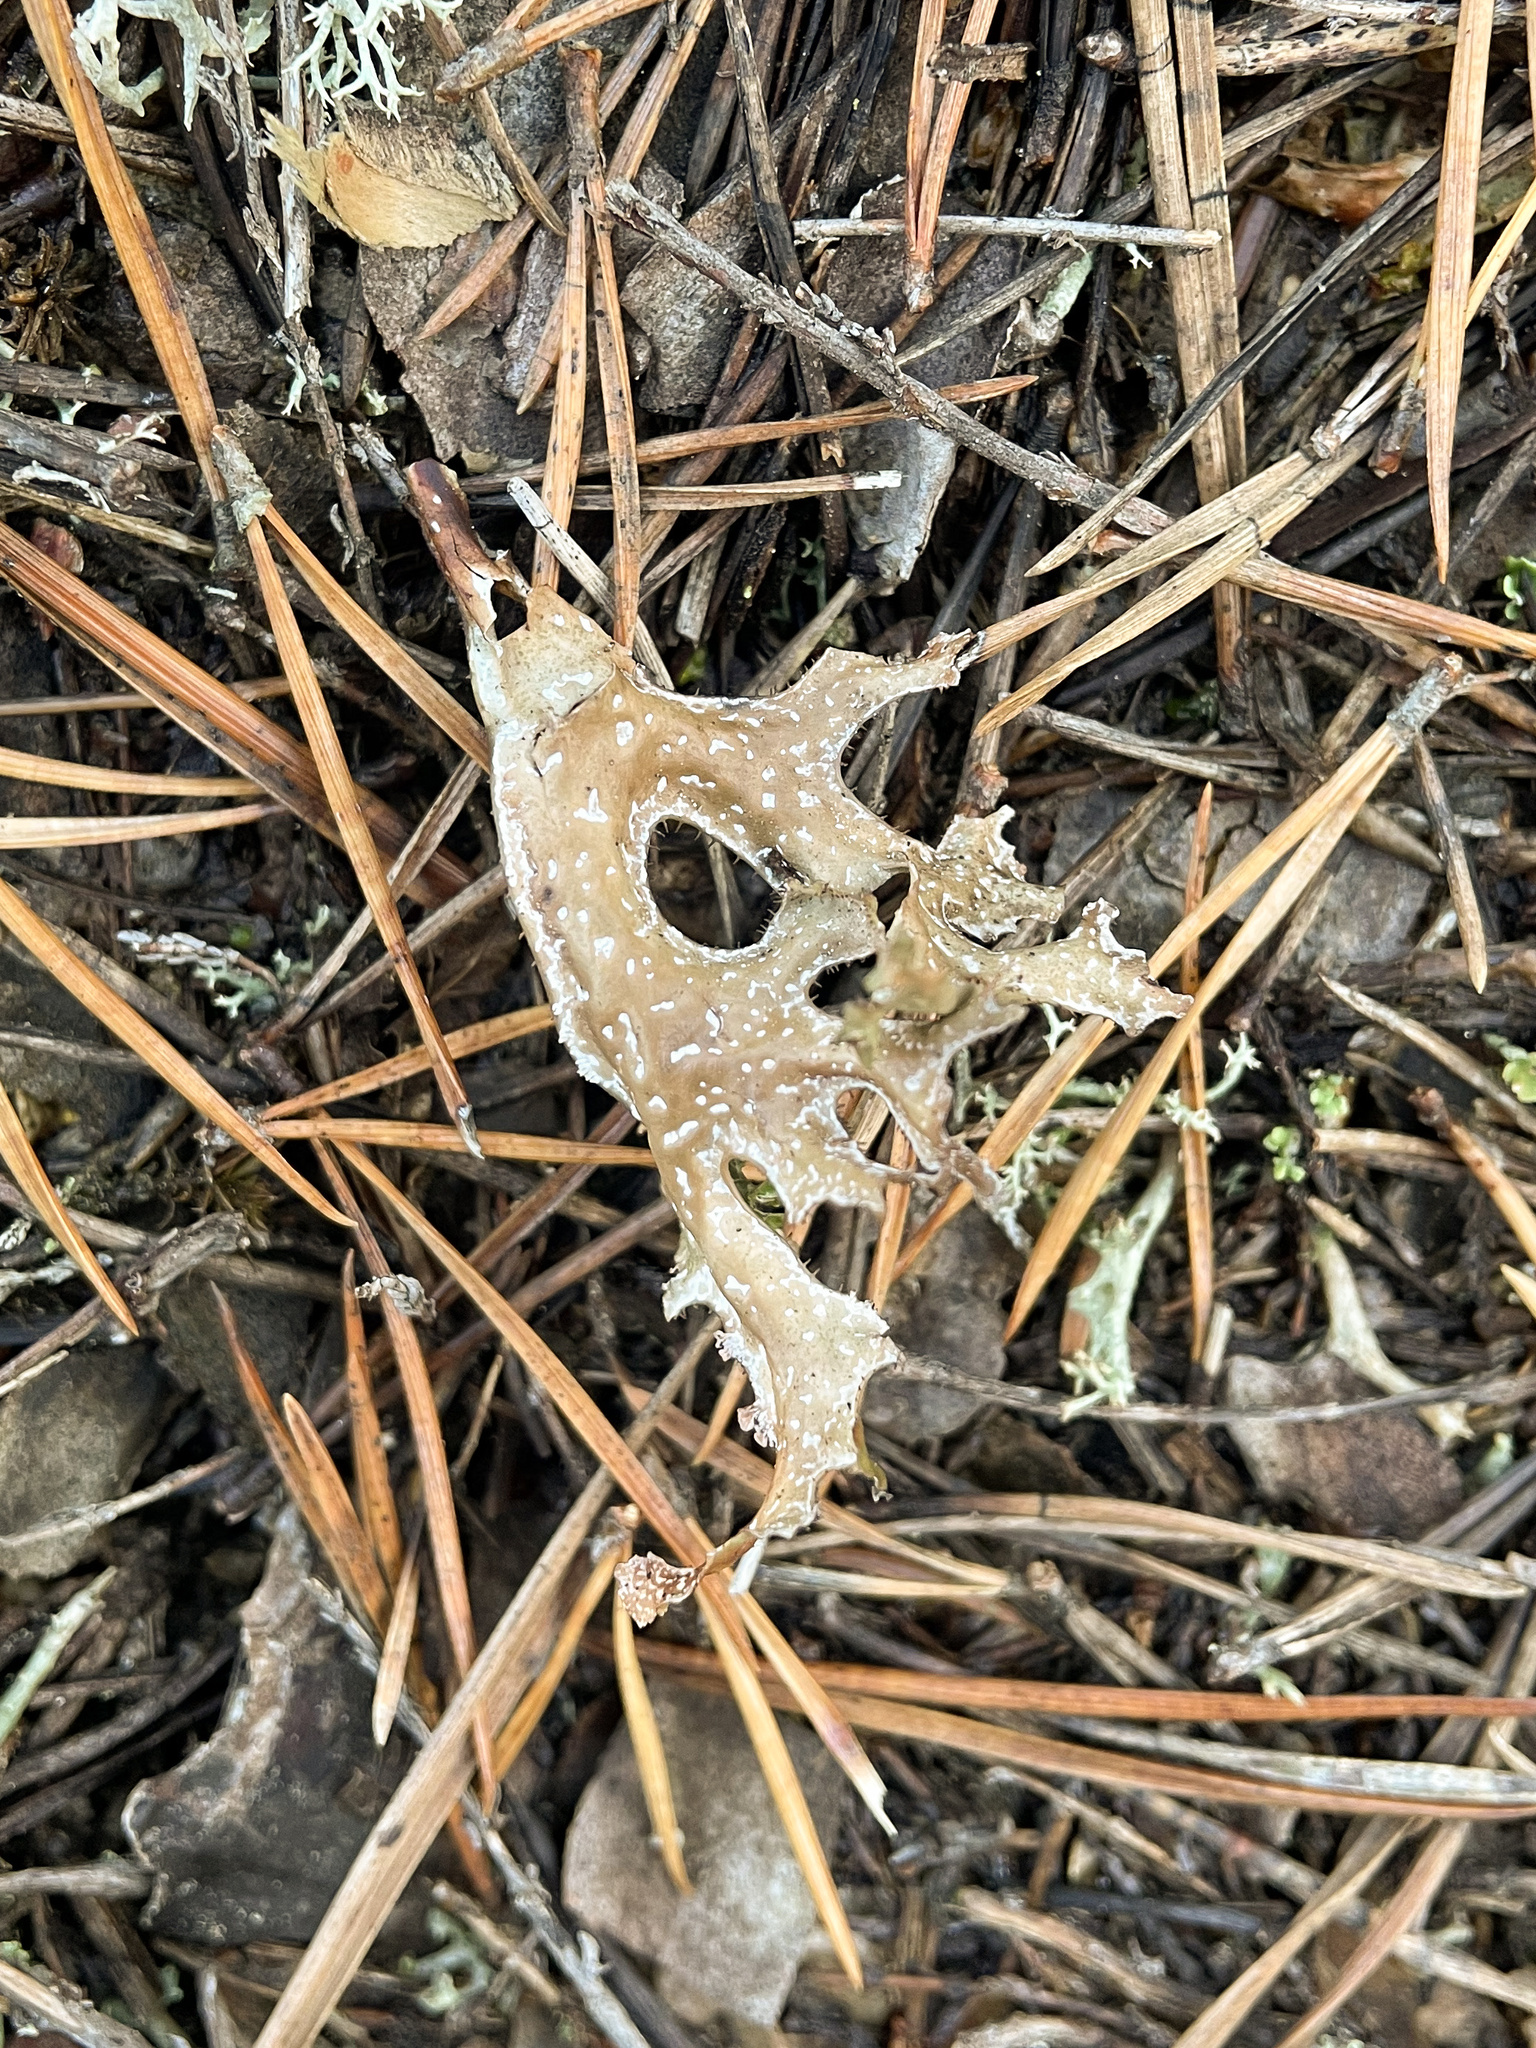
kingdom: Fungi
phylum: Ascomycota
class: Lecanoromycetes
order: Lecanorales
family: Parmeliaceae
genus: Cetraria
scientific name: Cetraria islandica
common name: Iceland lichen
